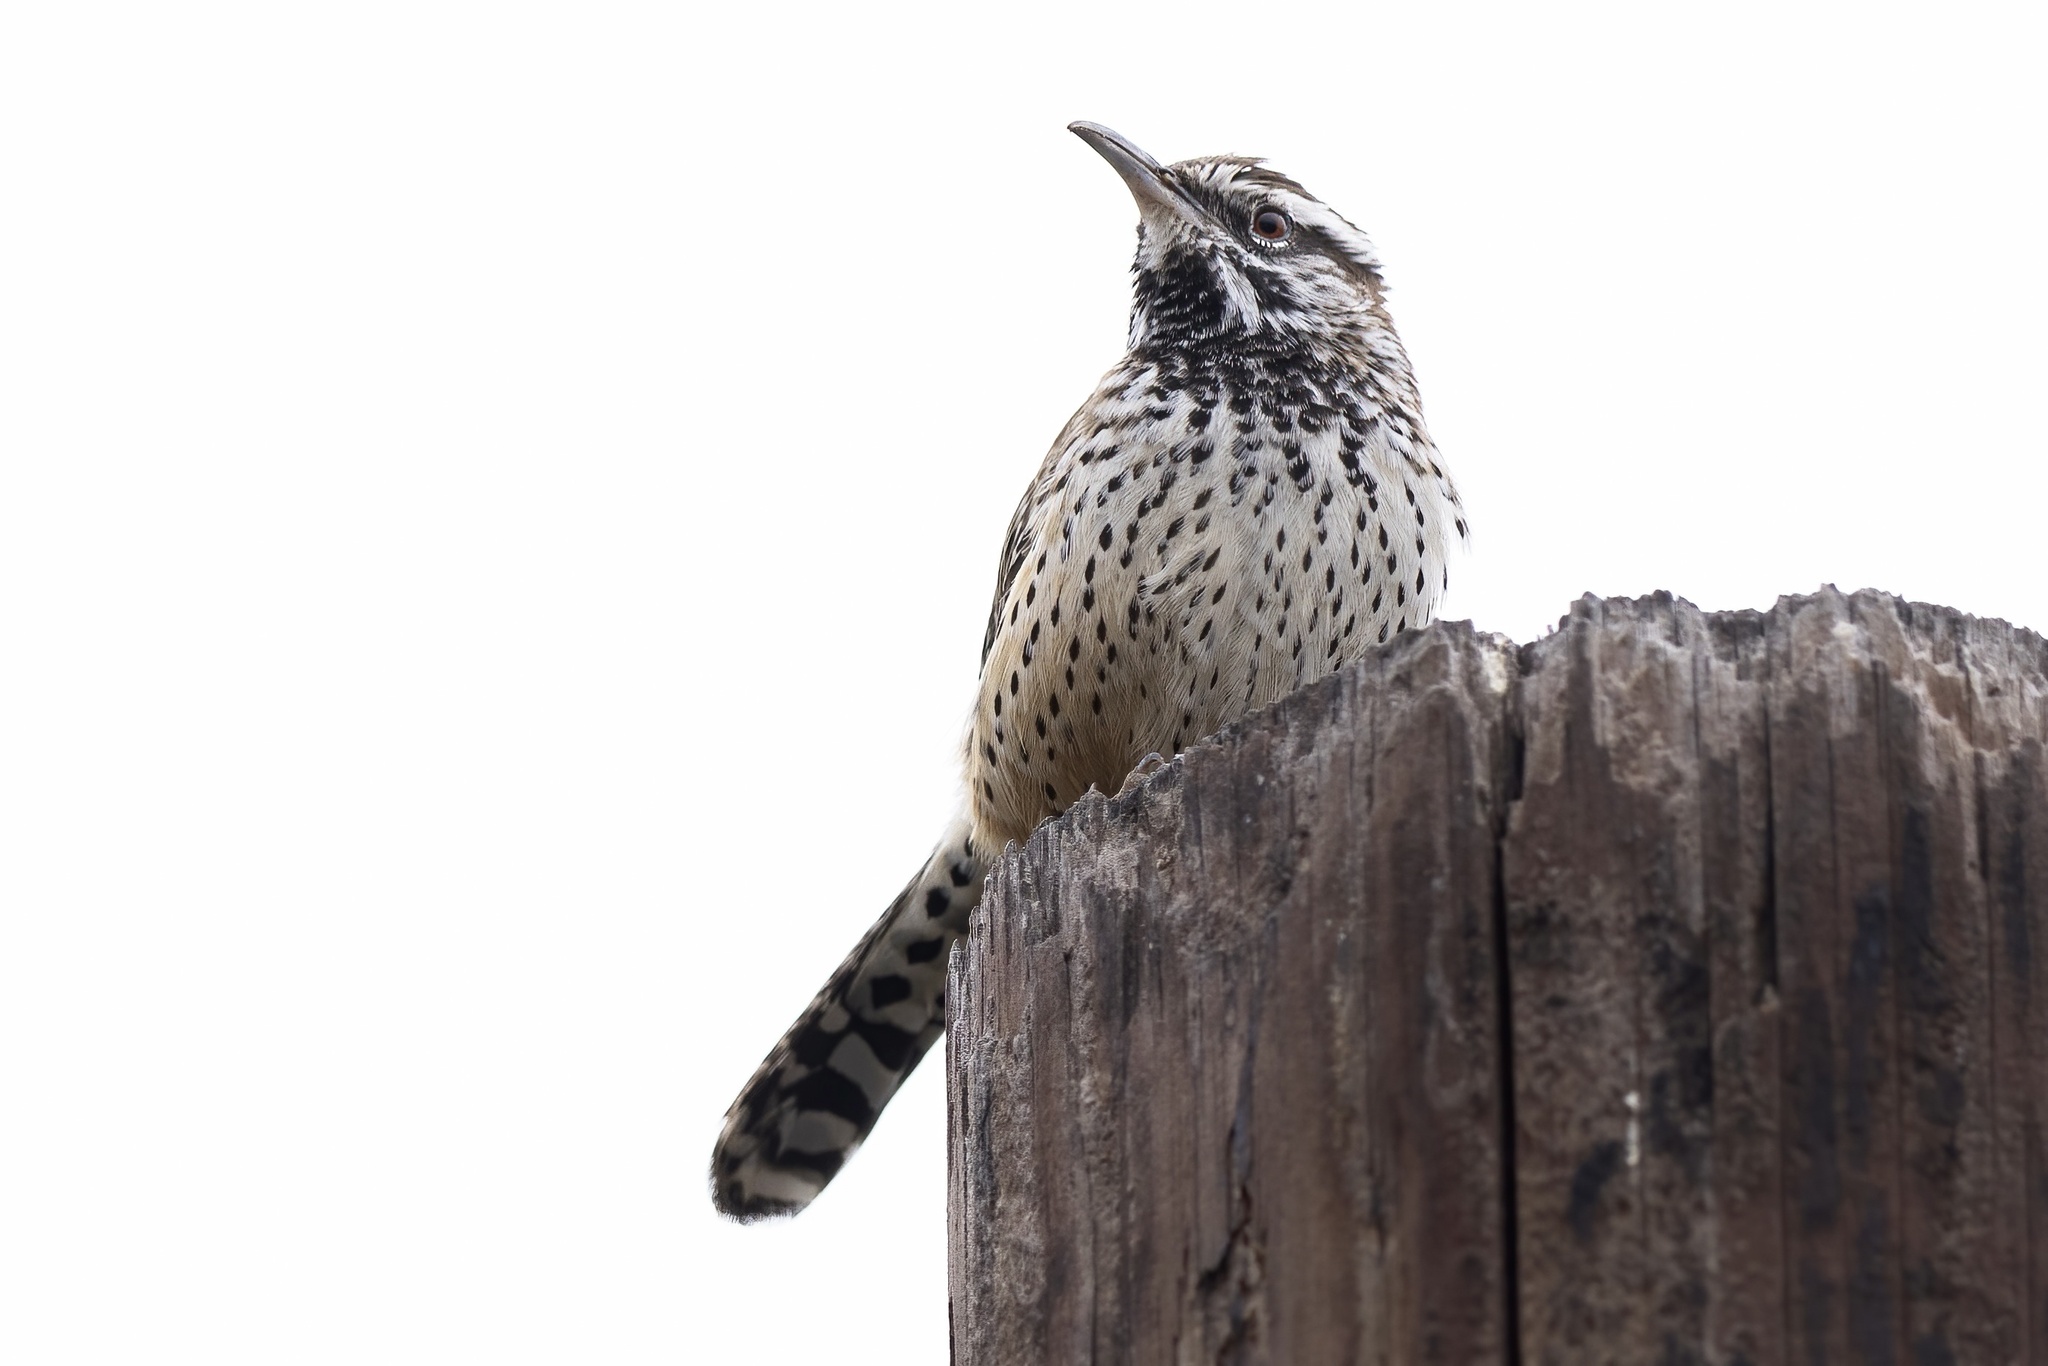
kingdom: Animalia
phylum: Chordata
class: Aves
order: Passeriformes
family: Troglodytidae
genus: Campylorhynchus
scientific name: Campylorhynchus brunneicapillus
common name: Cactus wren
